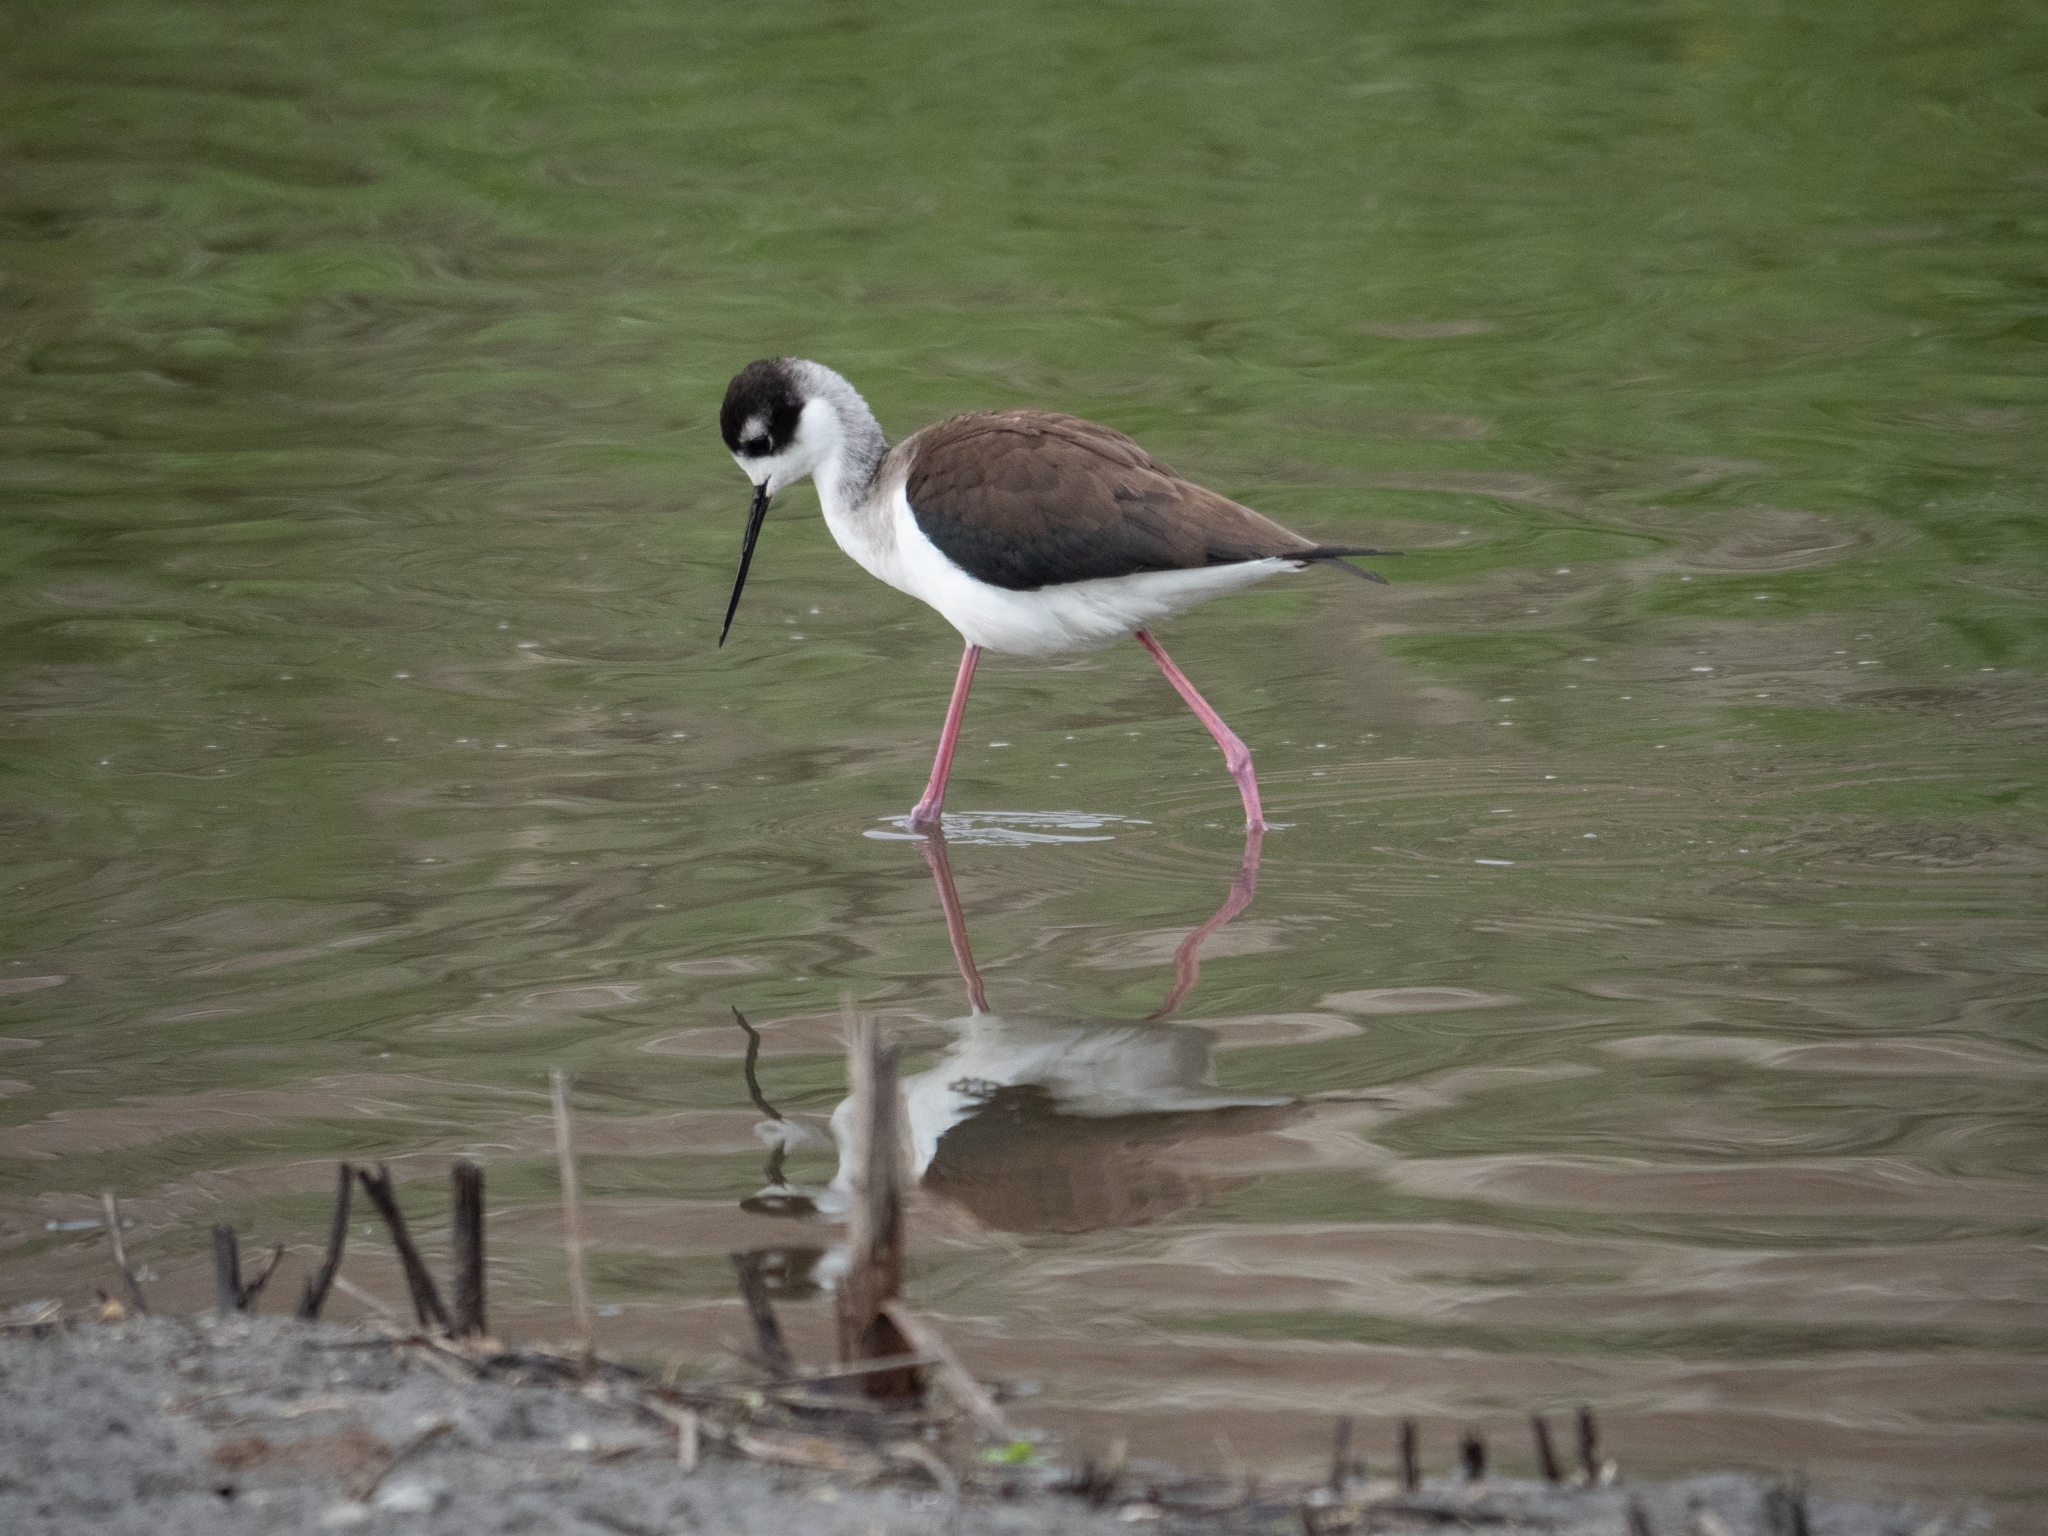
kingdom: Animalia
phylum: Chordata
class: Aves
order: Charadriiformes
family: Recurvirostridae
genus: Himantopus
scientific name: Himantopus mexicanus
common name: Black-necked stilt
